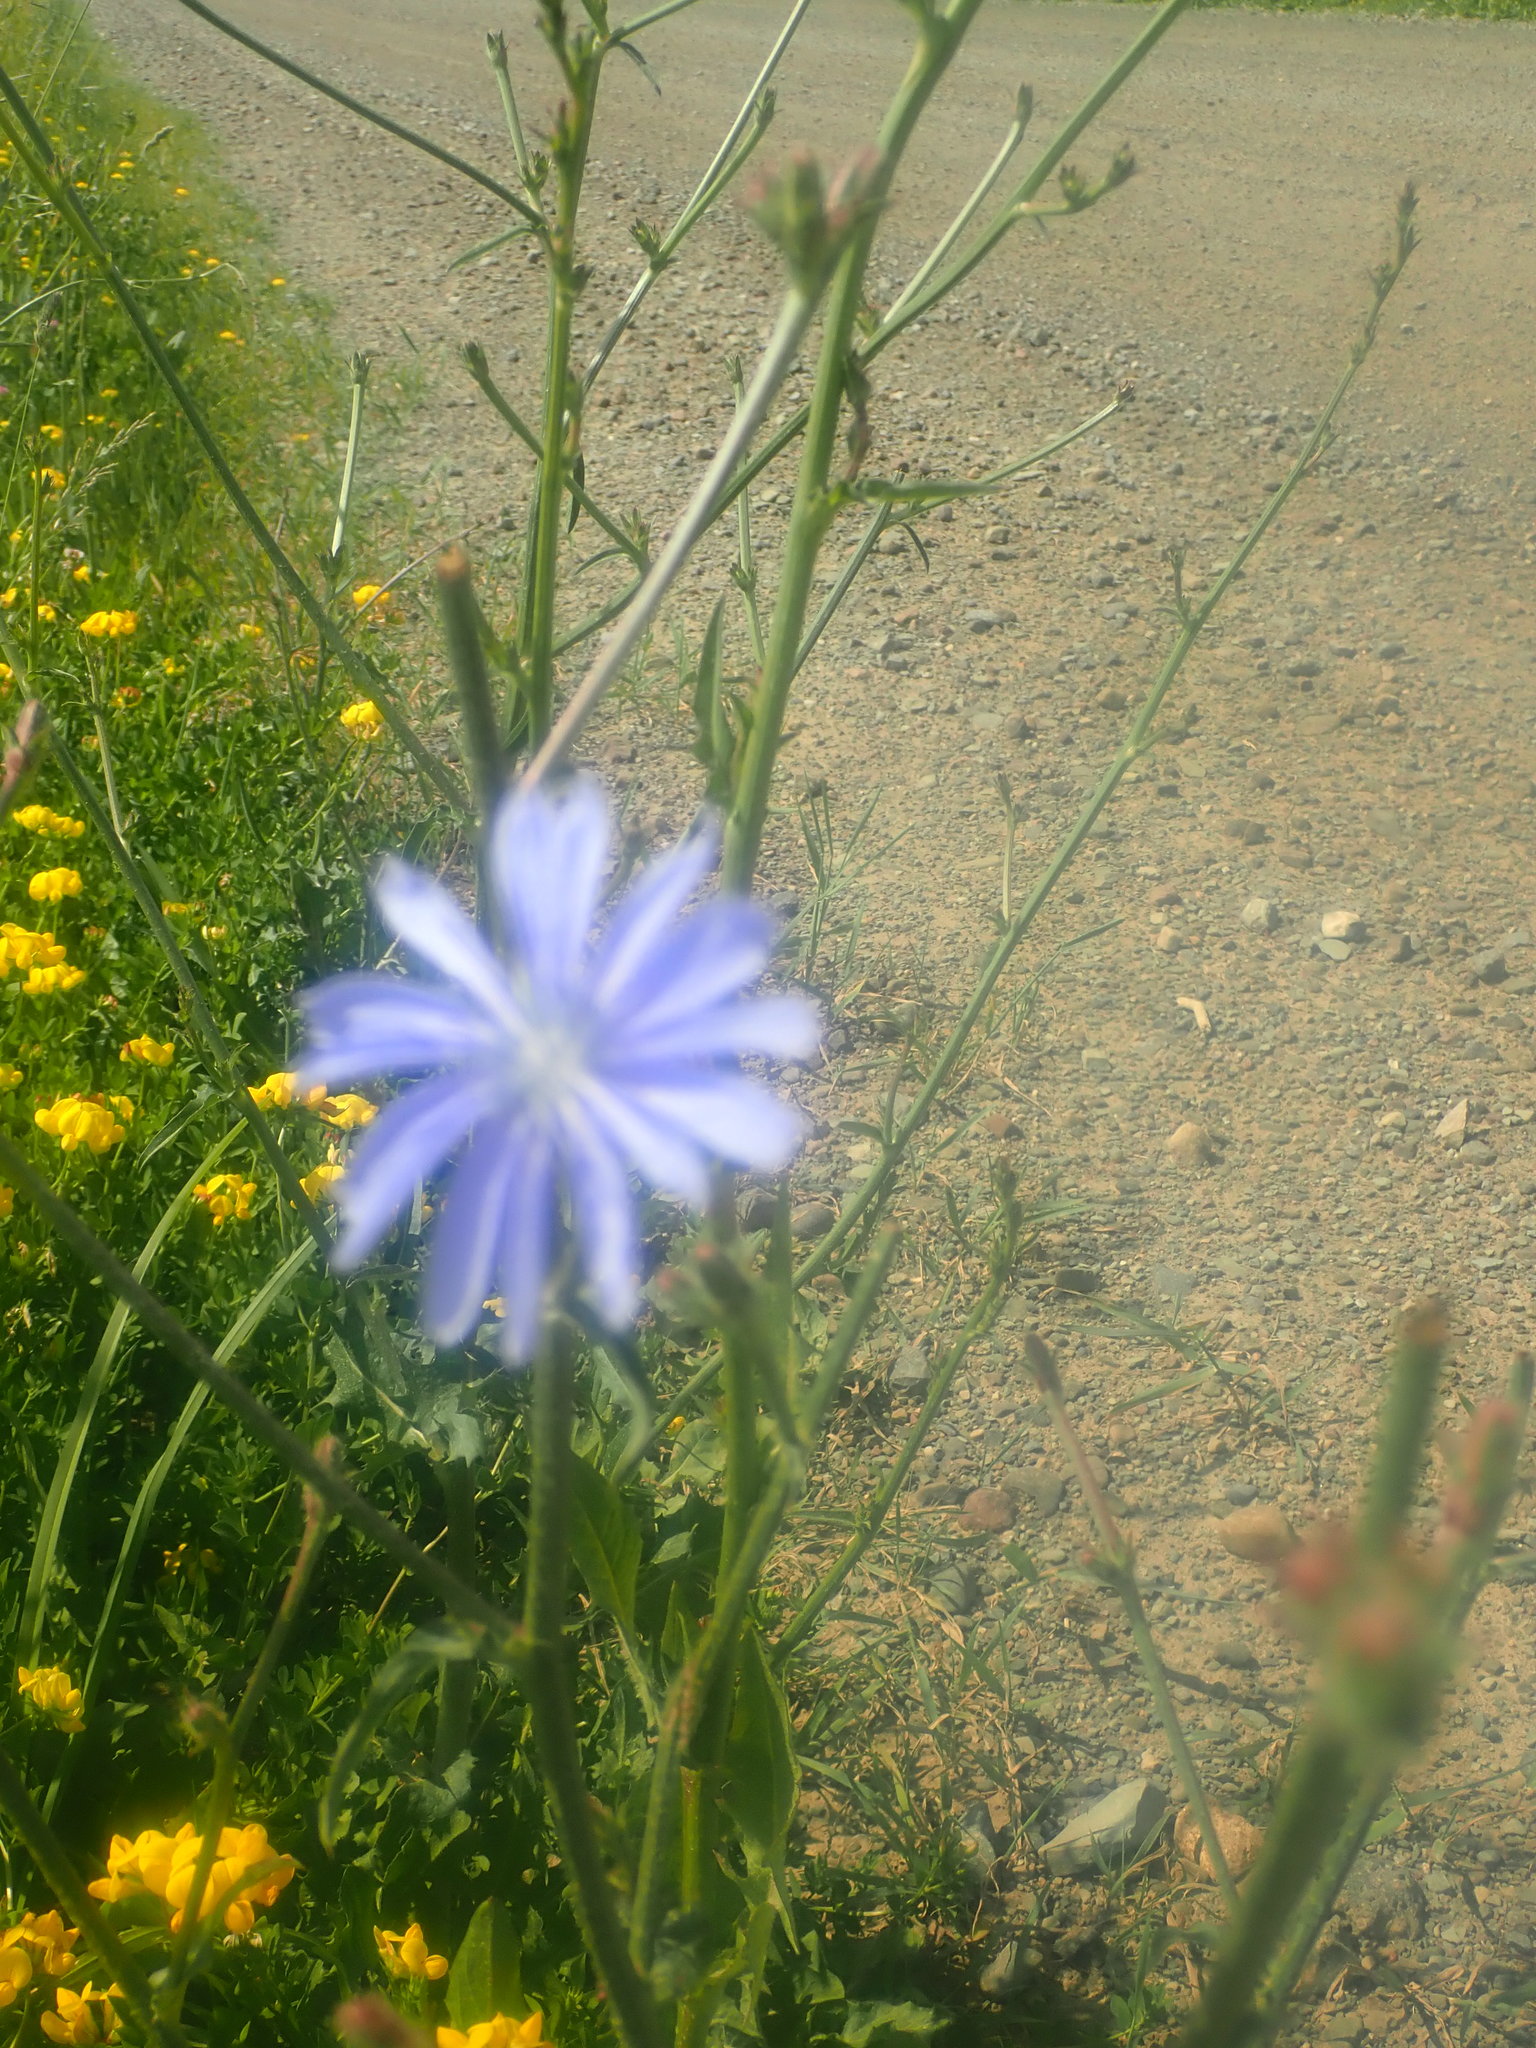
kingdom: Plantae
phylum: Tracheophyta
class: Magnoliopsida
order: Asterales
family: Asteraceae
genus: Cichorium
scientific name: Cichorium intybus
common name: Chicory
